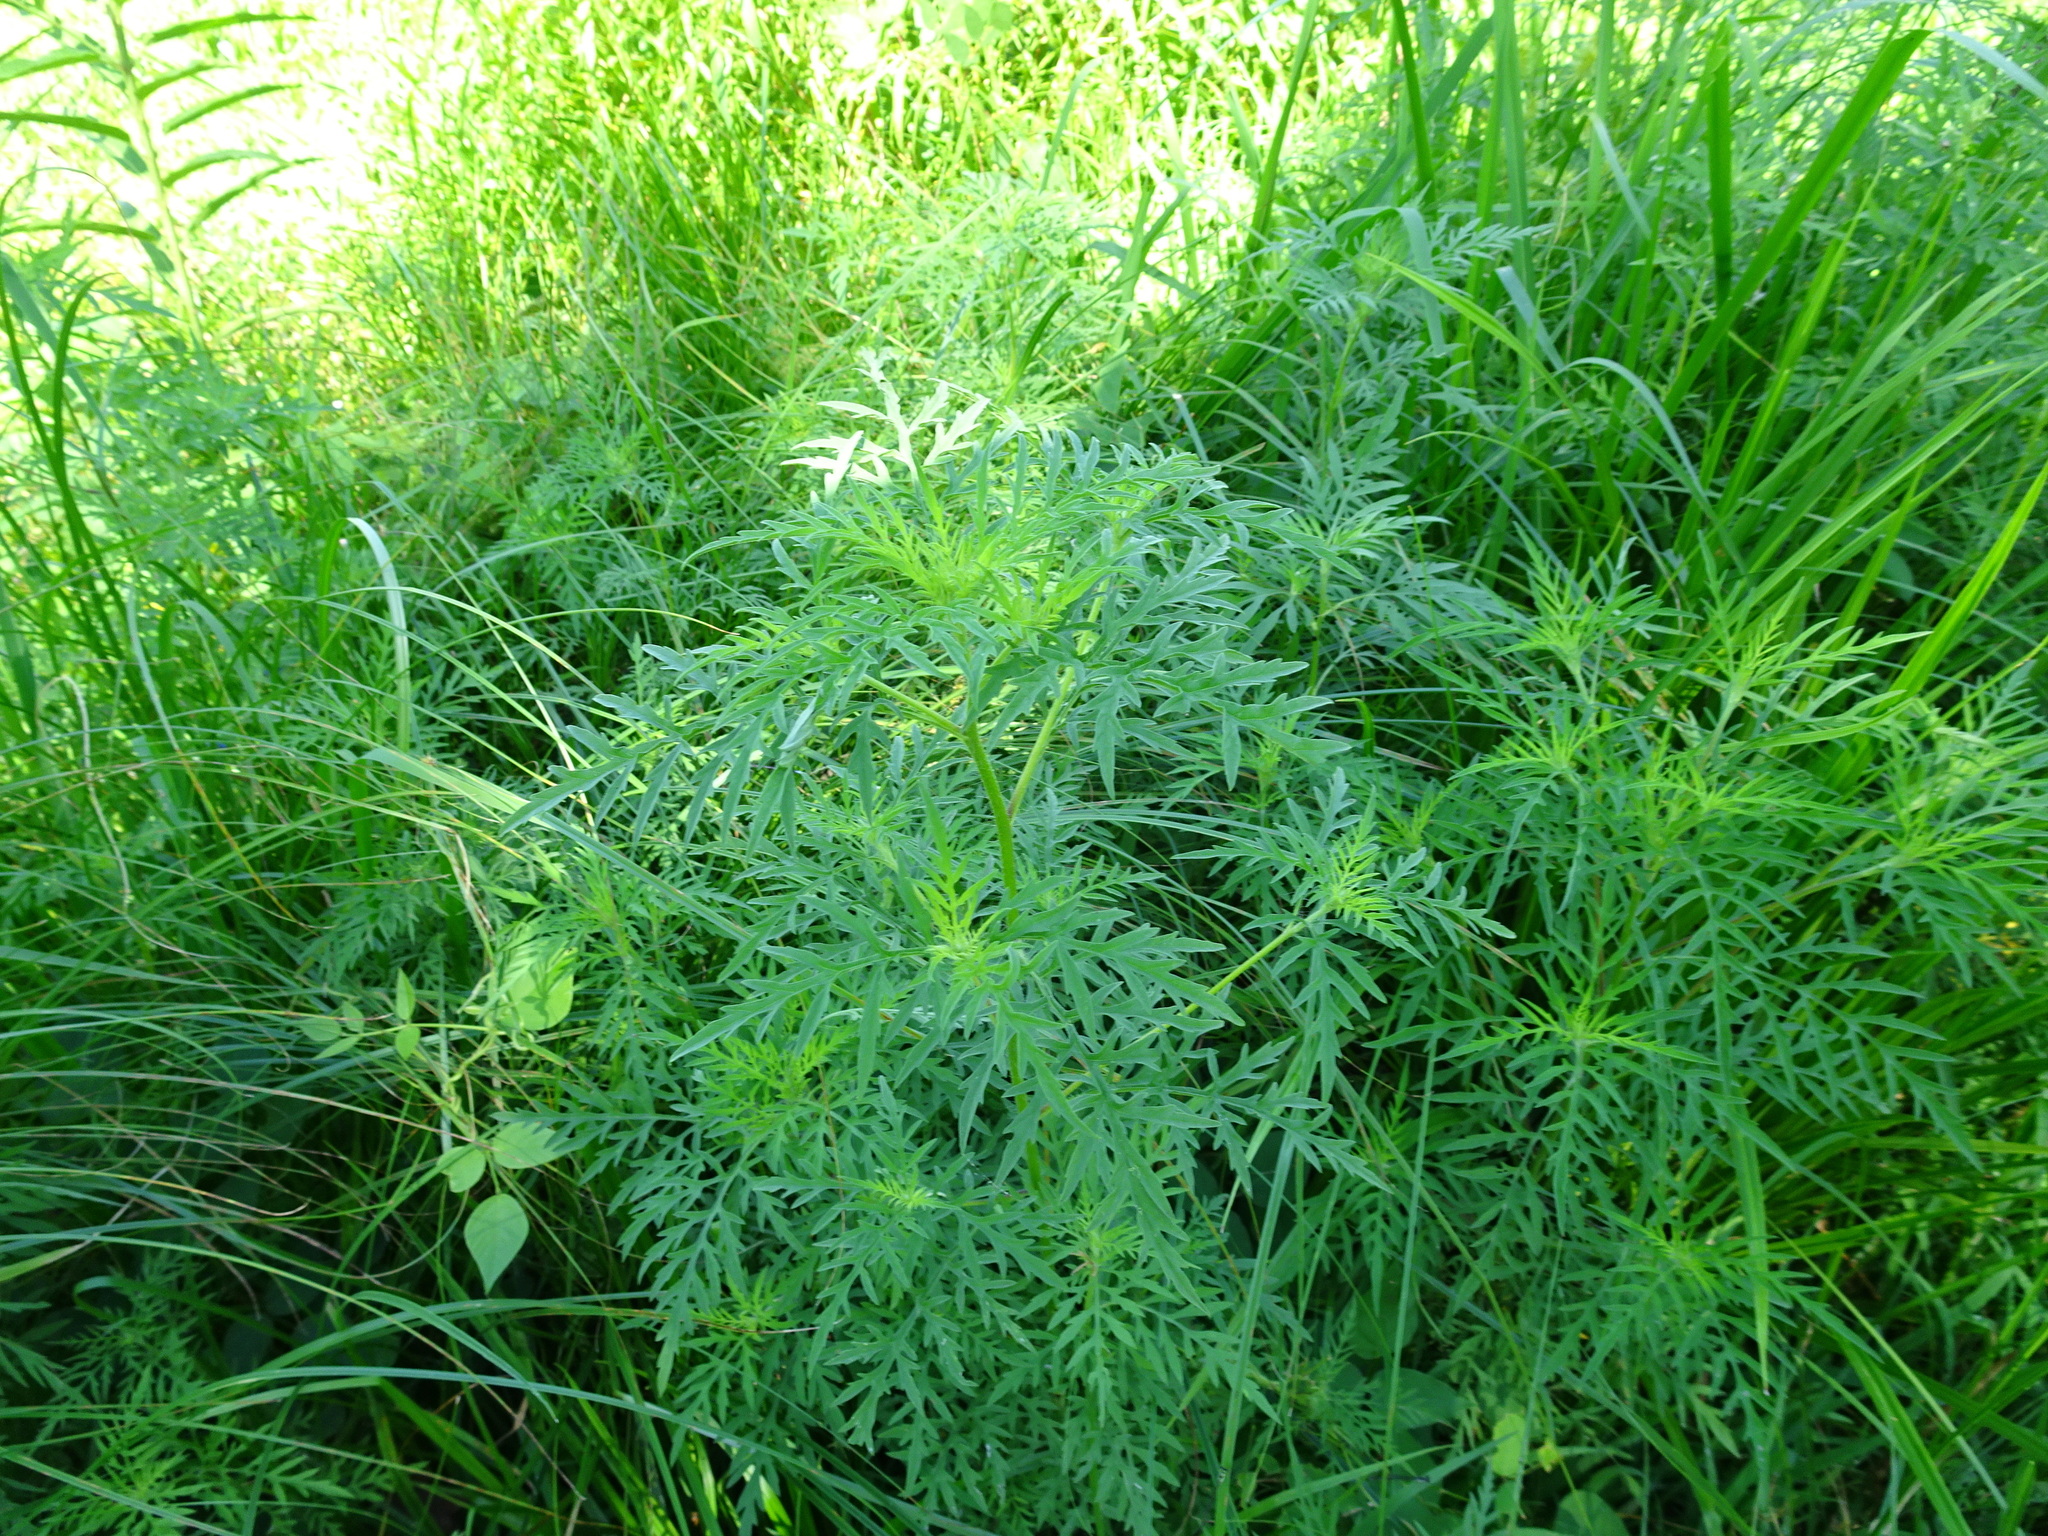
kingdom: Plantae
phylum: Tracheophyta
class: Magnoliopsida
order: Asterales
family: Asteraceae
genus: Ambrosia
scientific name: Ambrosia artemisiifolia
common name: Annual ragweed
